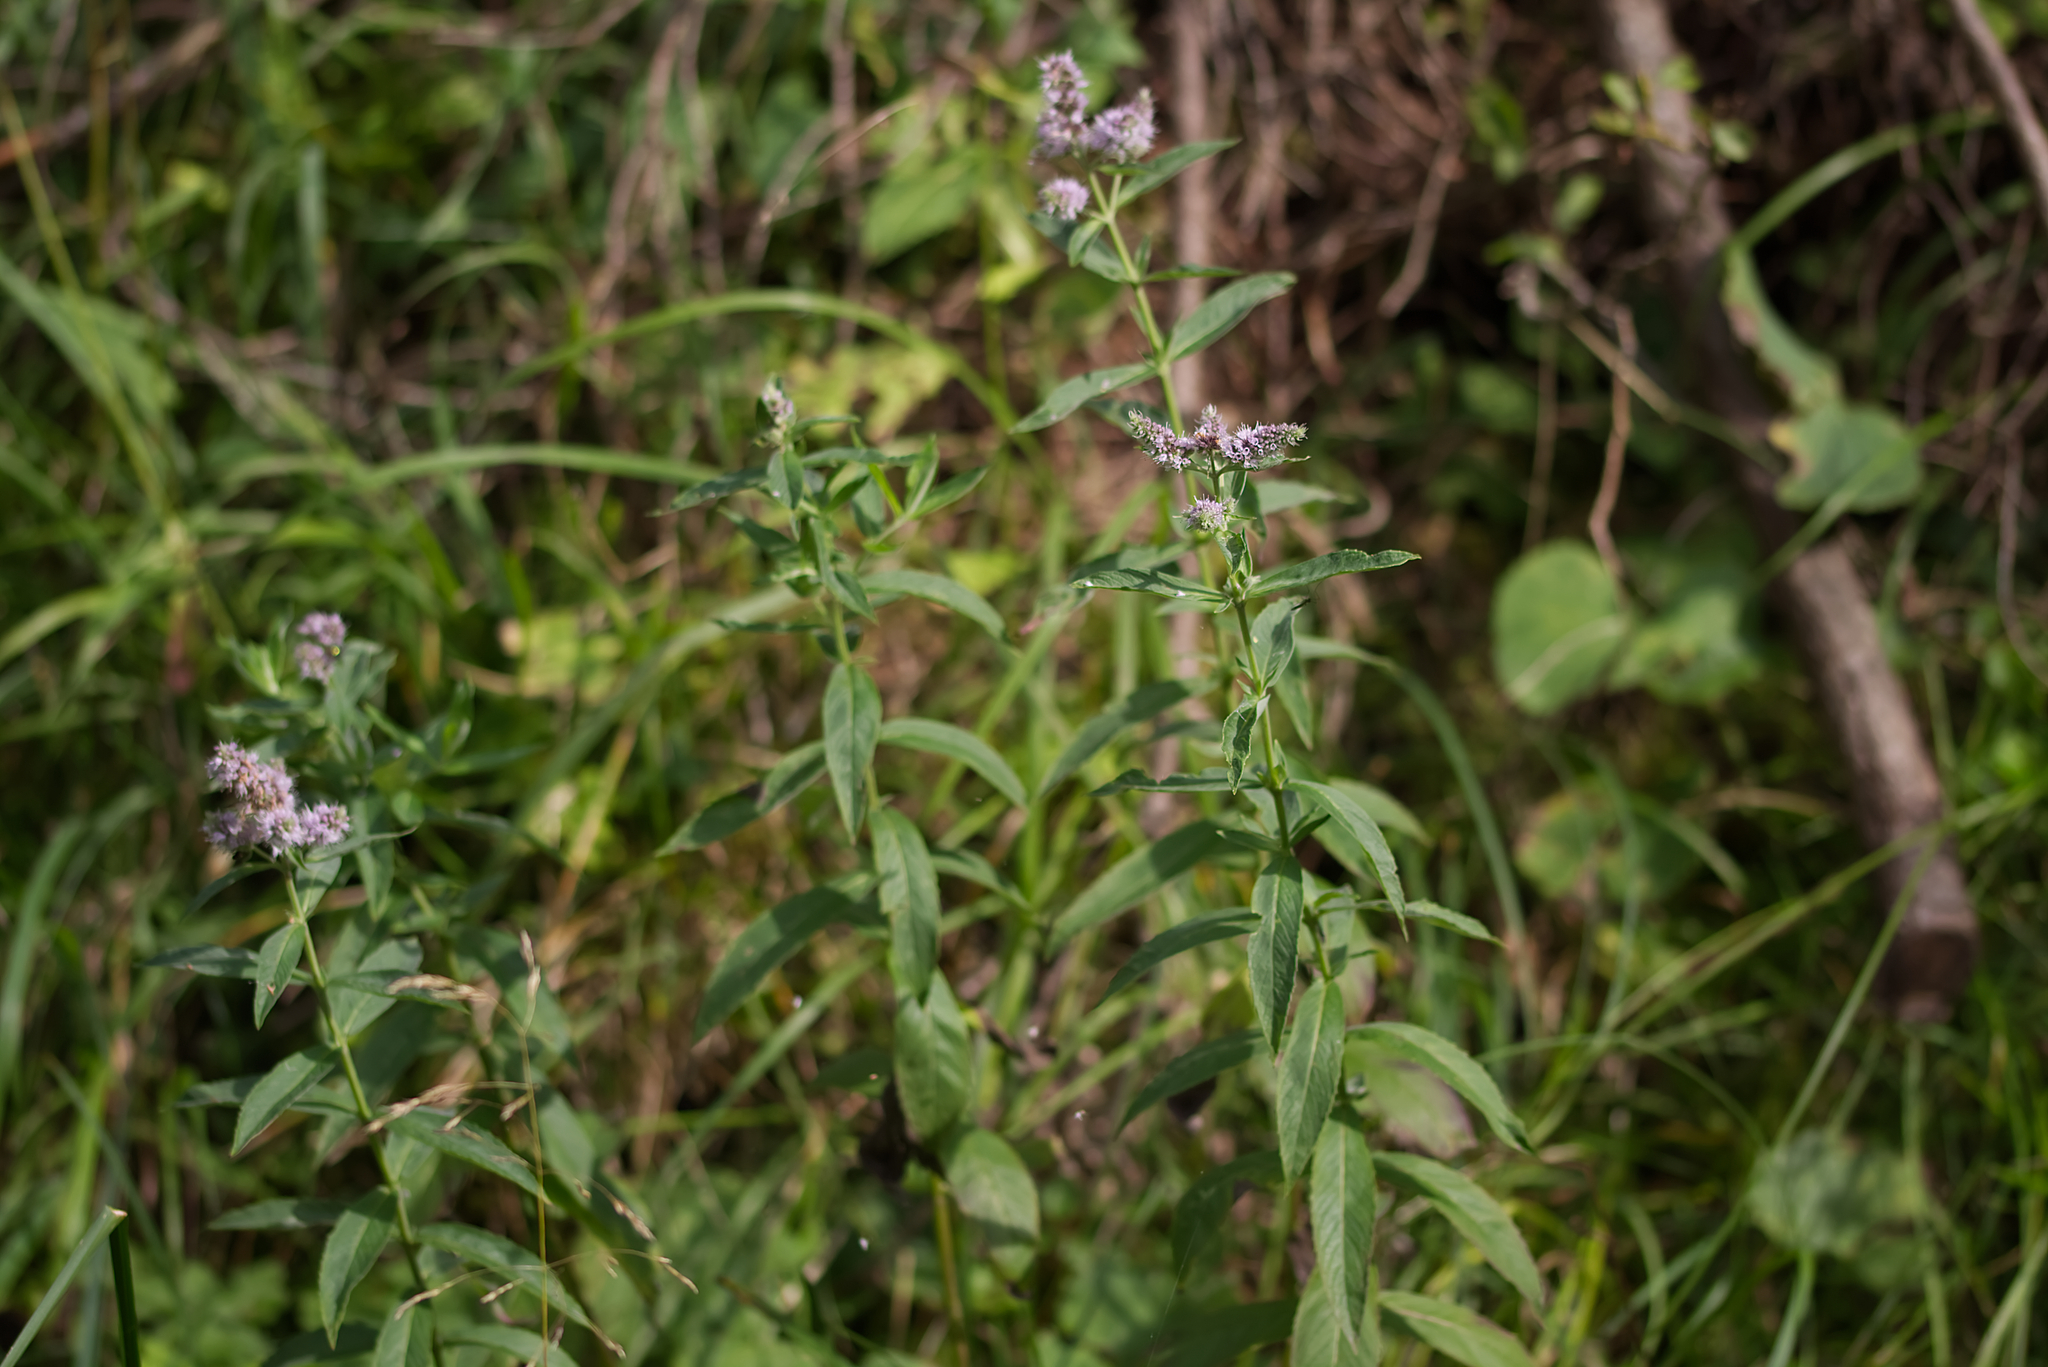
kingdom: Plantae
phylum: Tracheophyta
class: Magnoliopsida
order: Lamiales
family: Lamiaceae
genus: Mentha
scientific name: Mentha longifolia
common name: Horse mint
